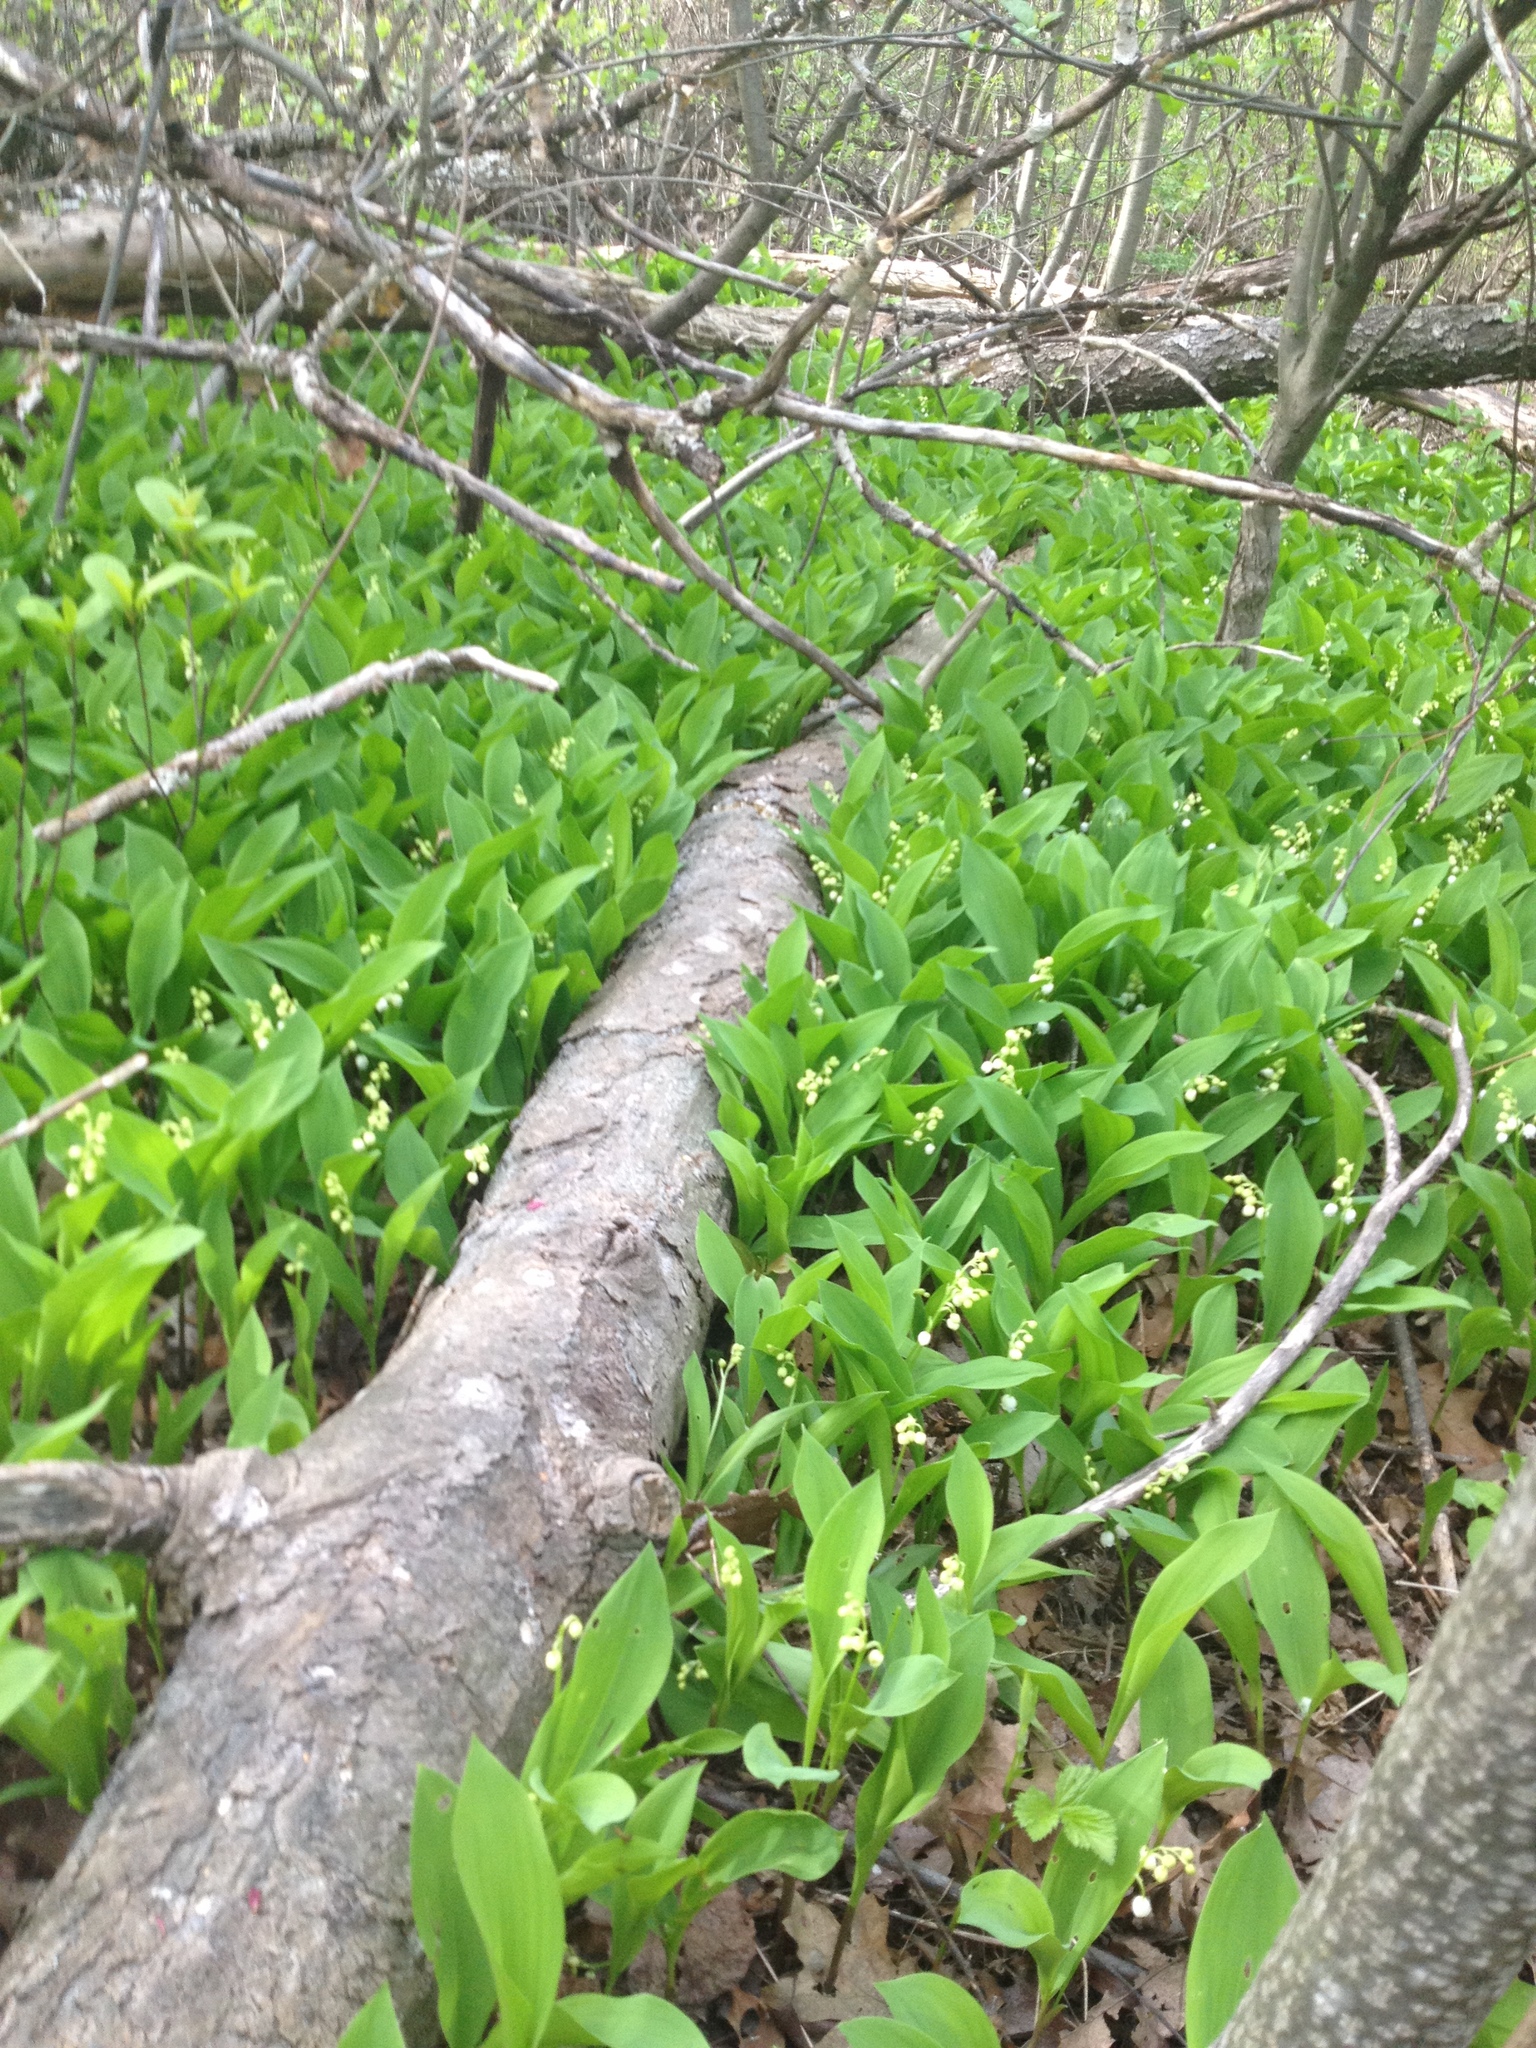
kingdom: Plantae
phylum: Tracheophyta
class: Liliopsida
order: Asparagales
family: Asparagaceae
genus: Convallaria
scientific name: Convallaria majalis
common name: Lily-of-the-valley
